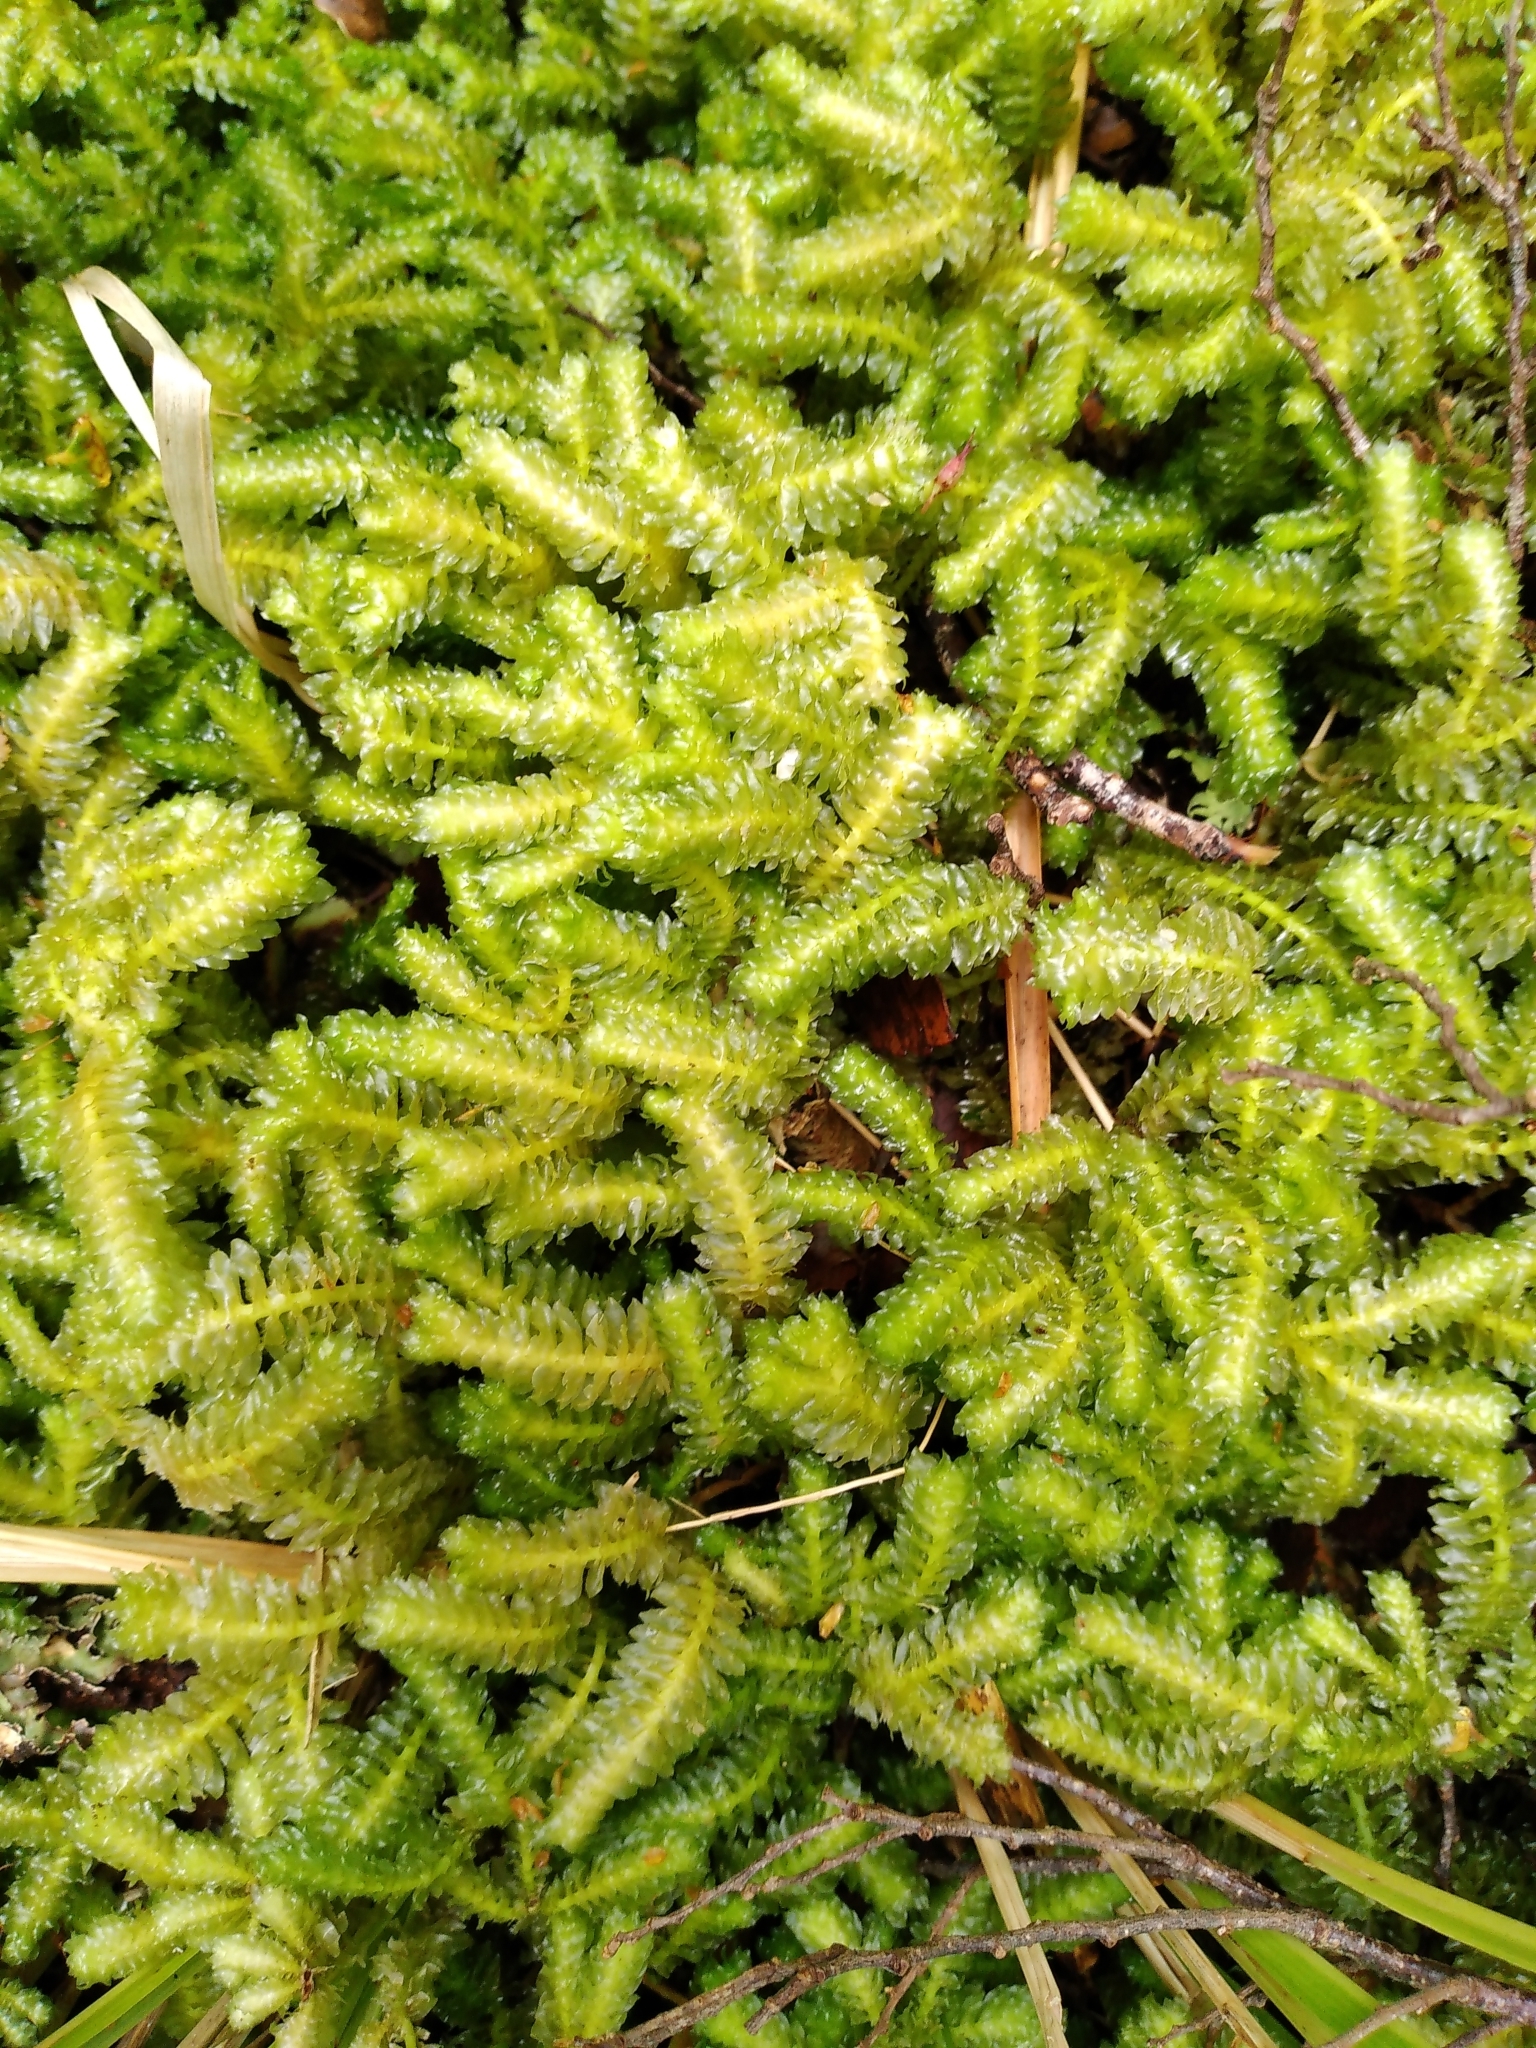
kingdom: Plantae
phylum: Marchantiophyta
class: Jungermanniopsida
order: Jungermanniales
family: Schistochilaceae
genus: Schistochila
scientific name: Schistochila nobilis
